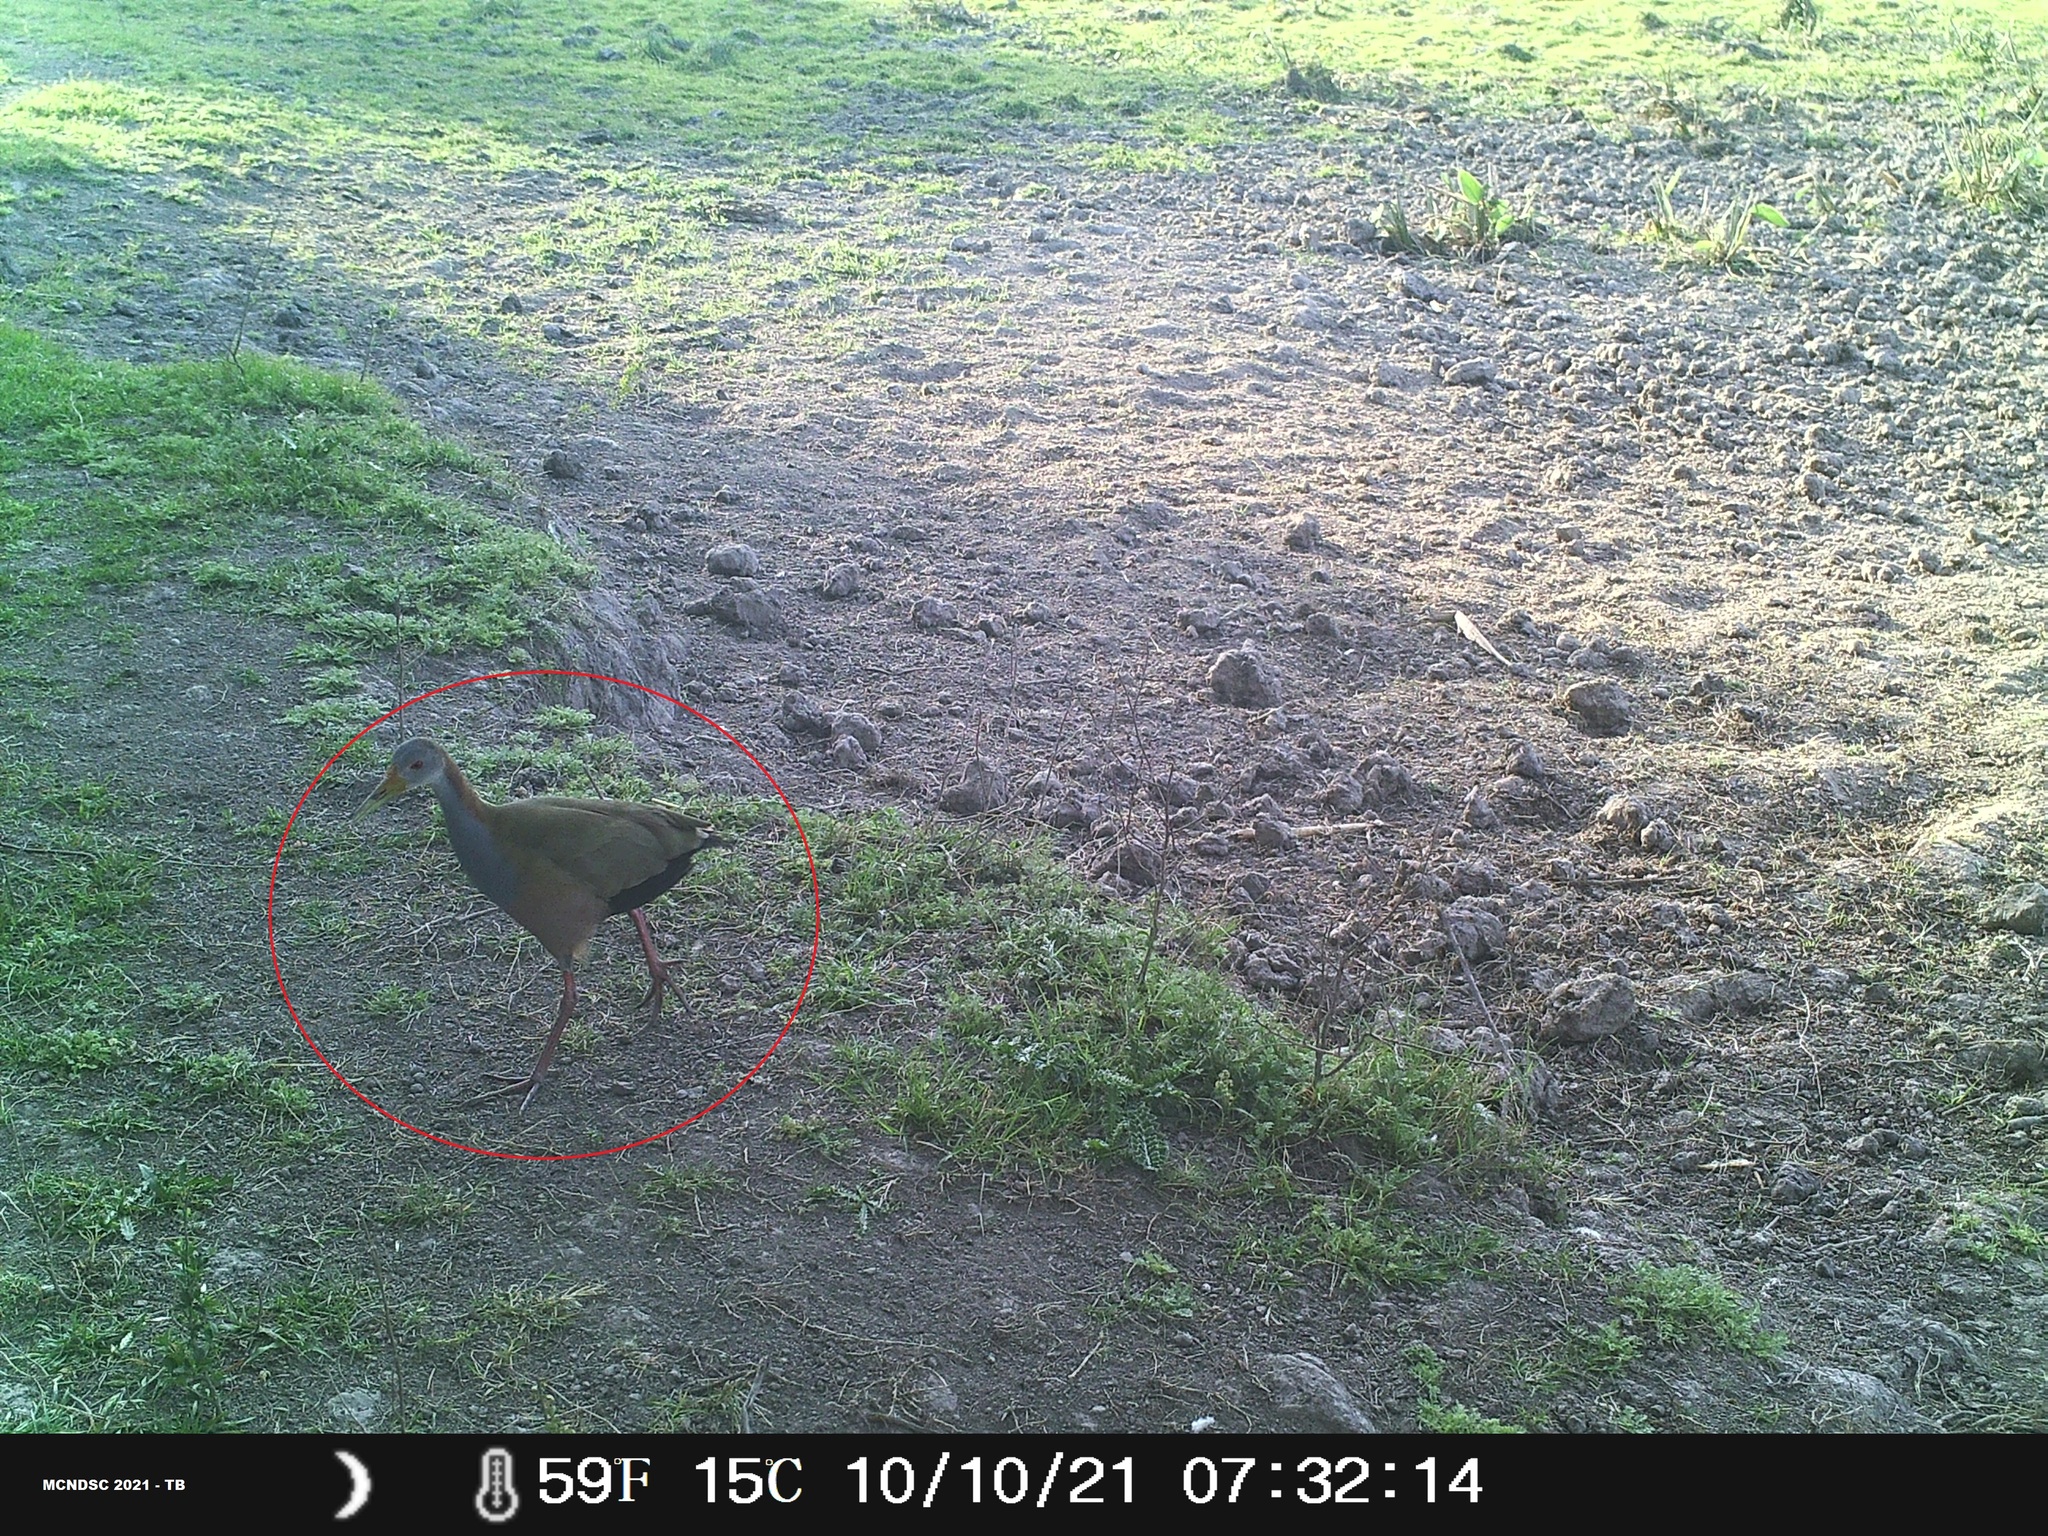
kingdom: Animalia
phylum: Chordata
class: Aves
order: Gruiformes
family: Rallidae
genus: Aramides
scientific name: Aramides ypecaha
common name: Giant wood rail
